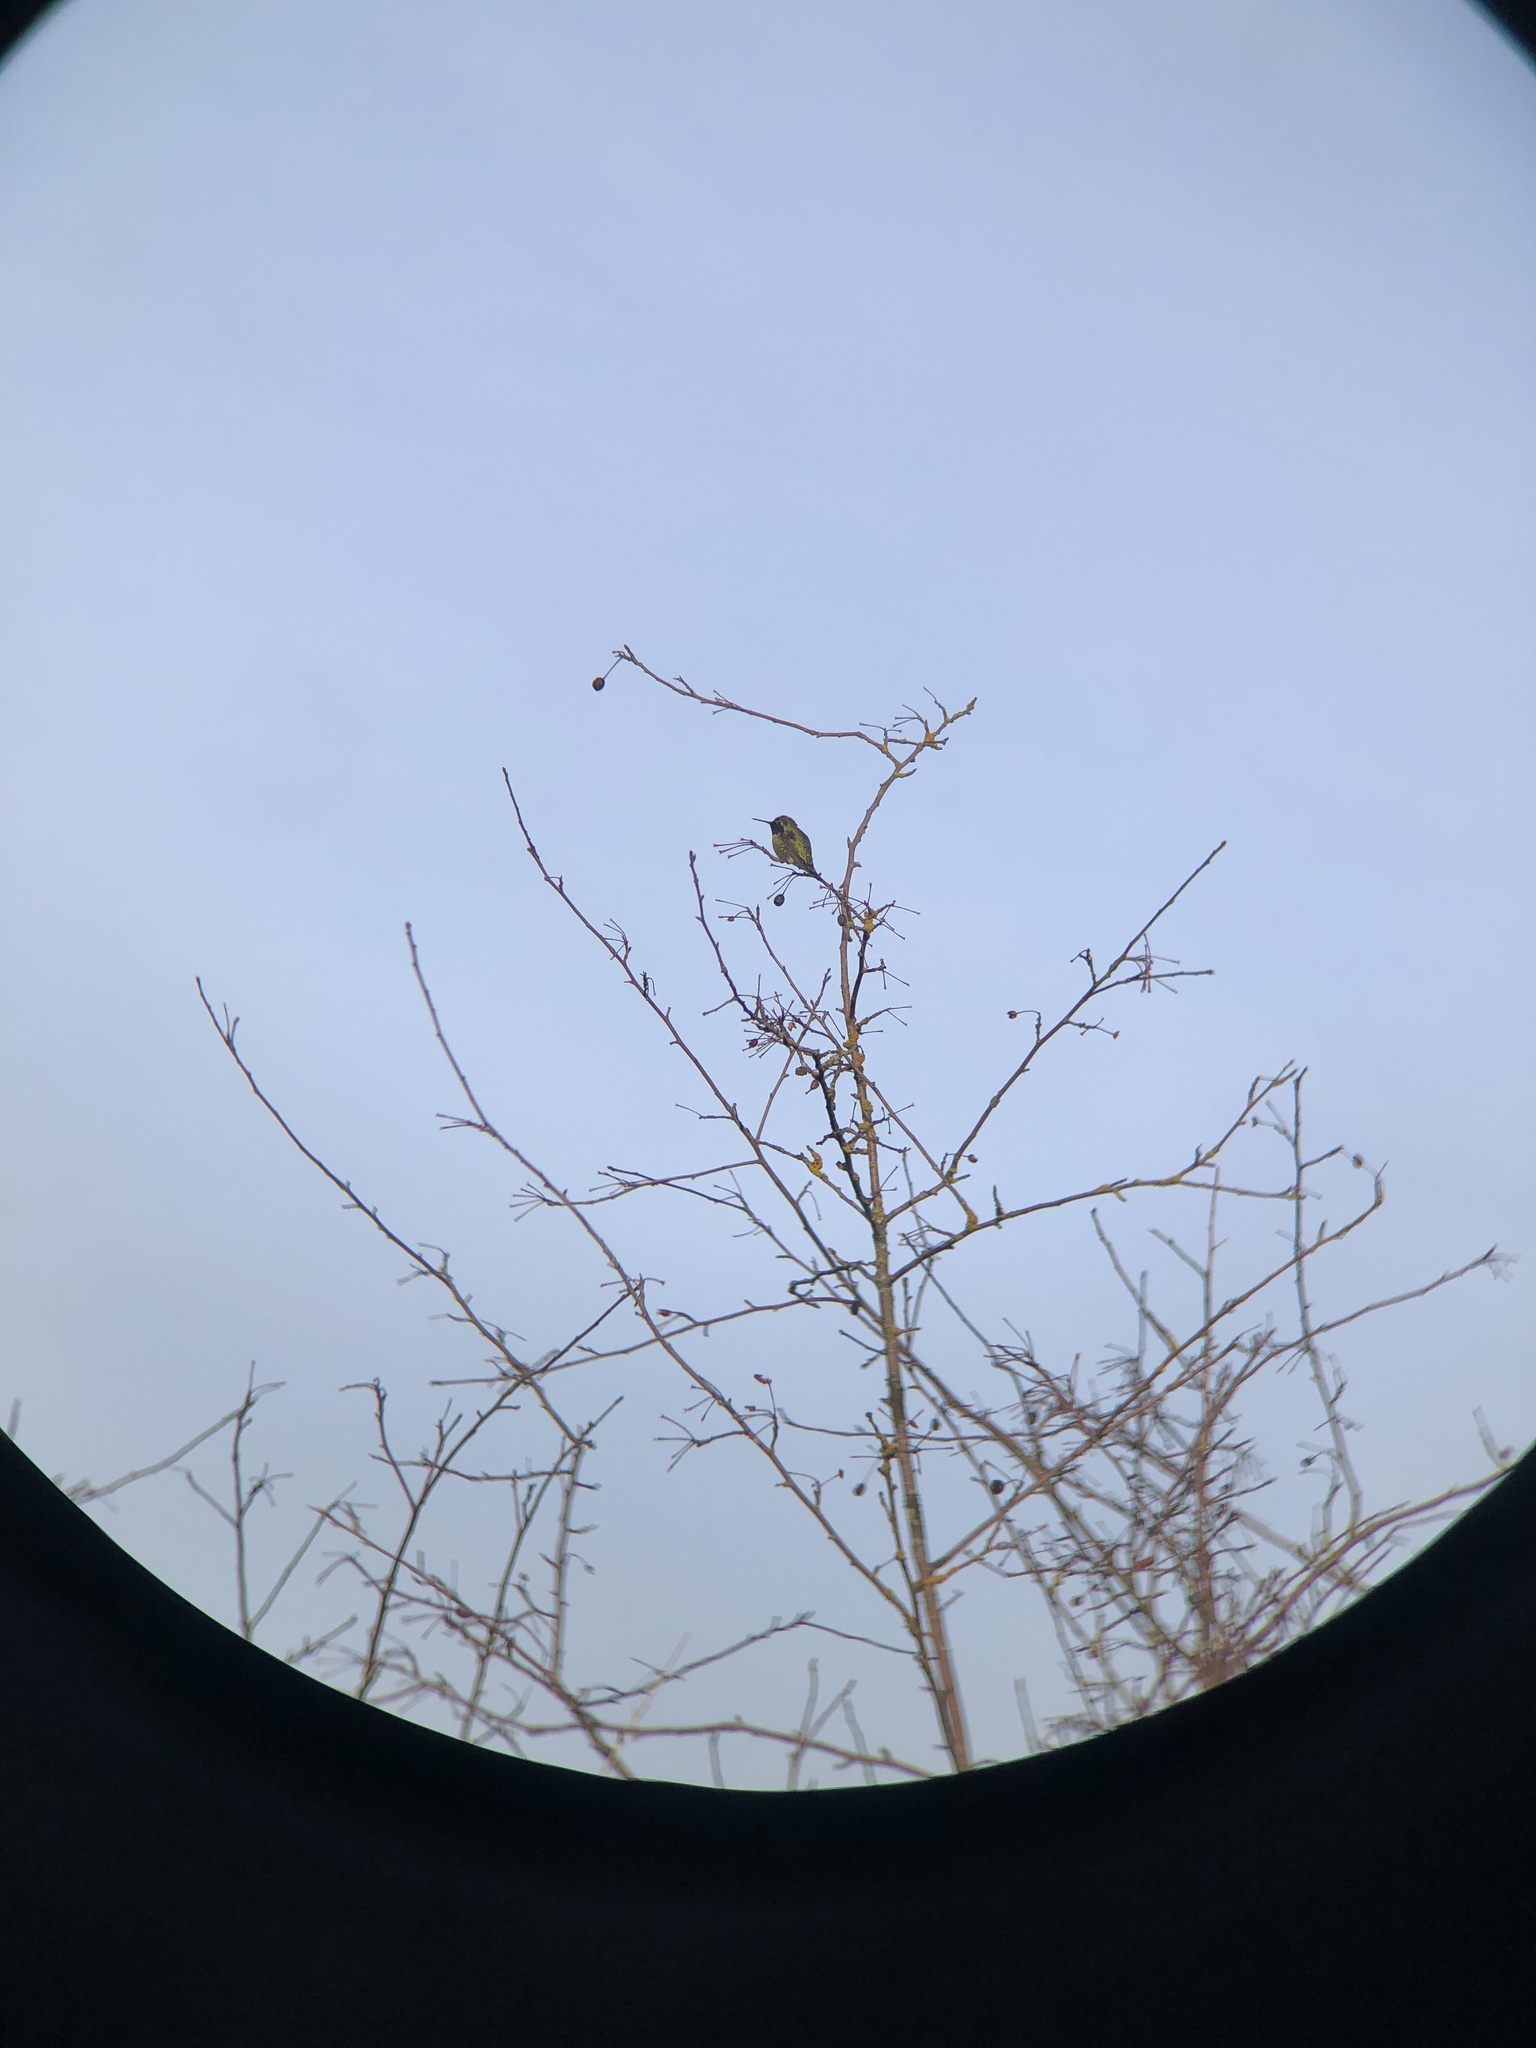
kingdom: Animalia
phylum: Chordata
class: Aves
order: Apodiformes
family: Trochilidae
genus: Calypte
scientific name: Calypte anna
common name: Anna's hummingbird
